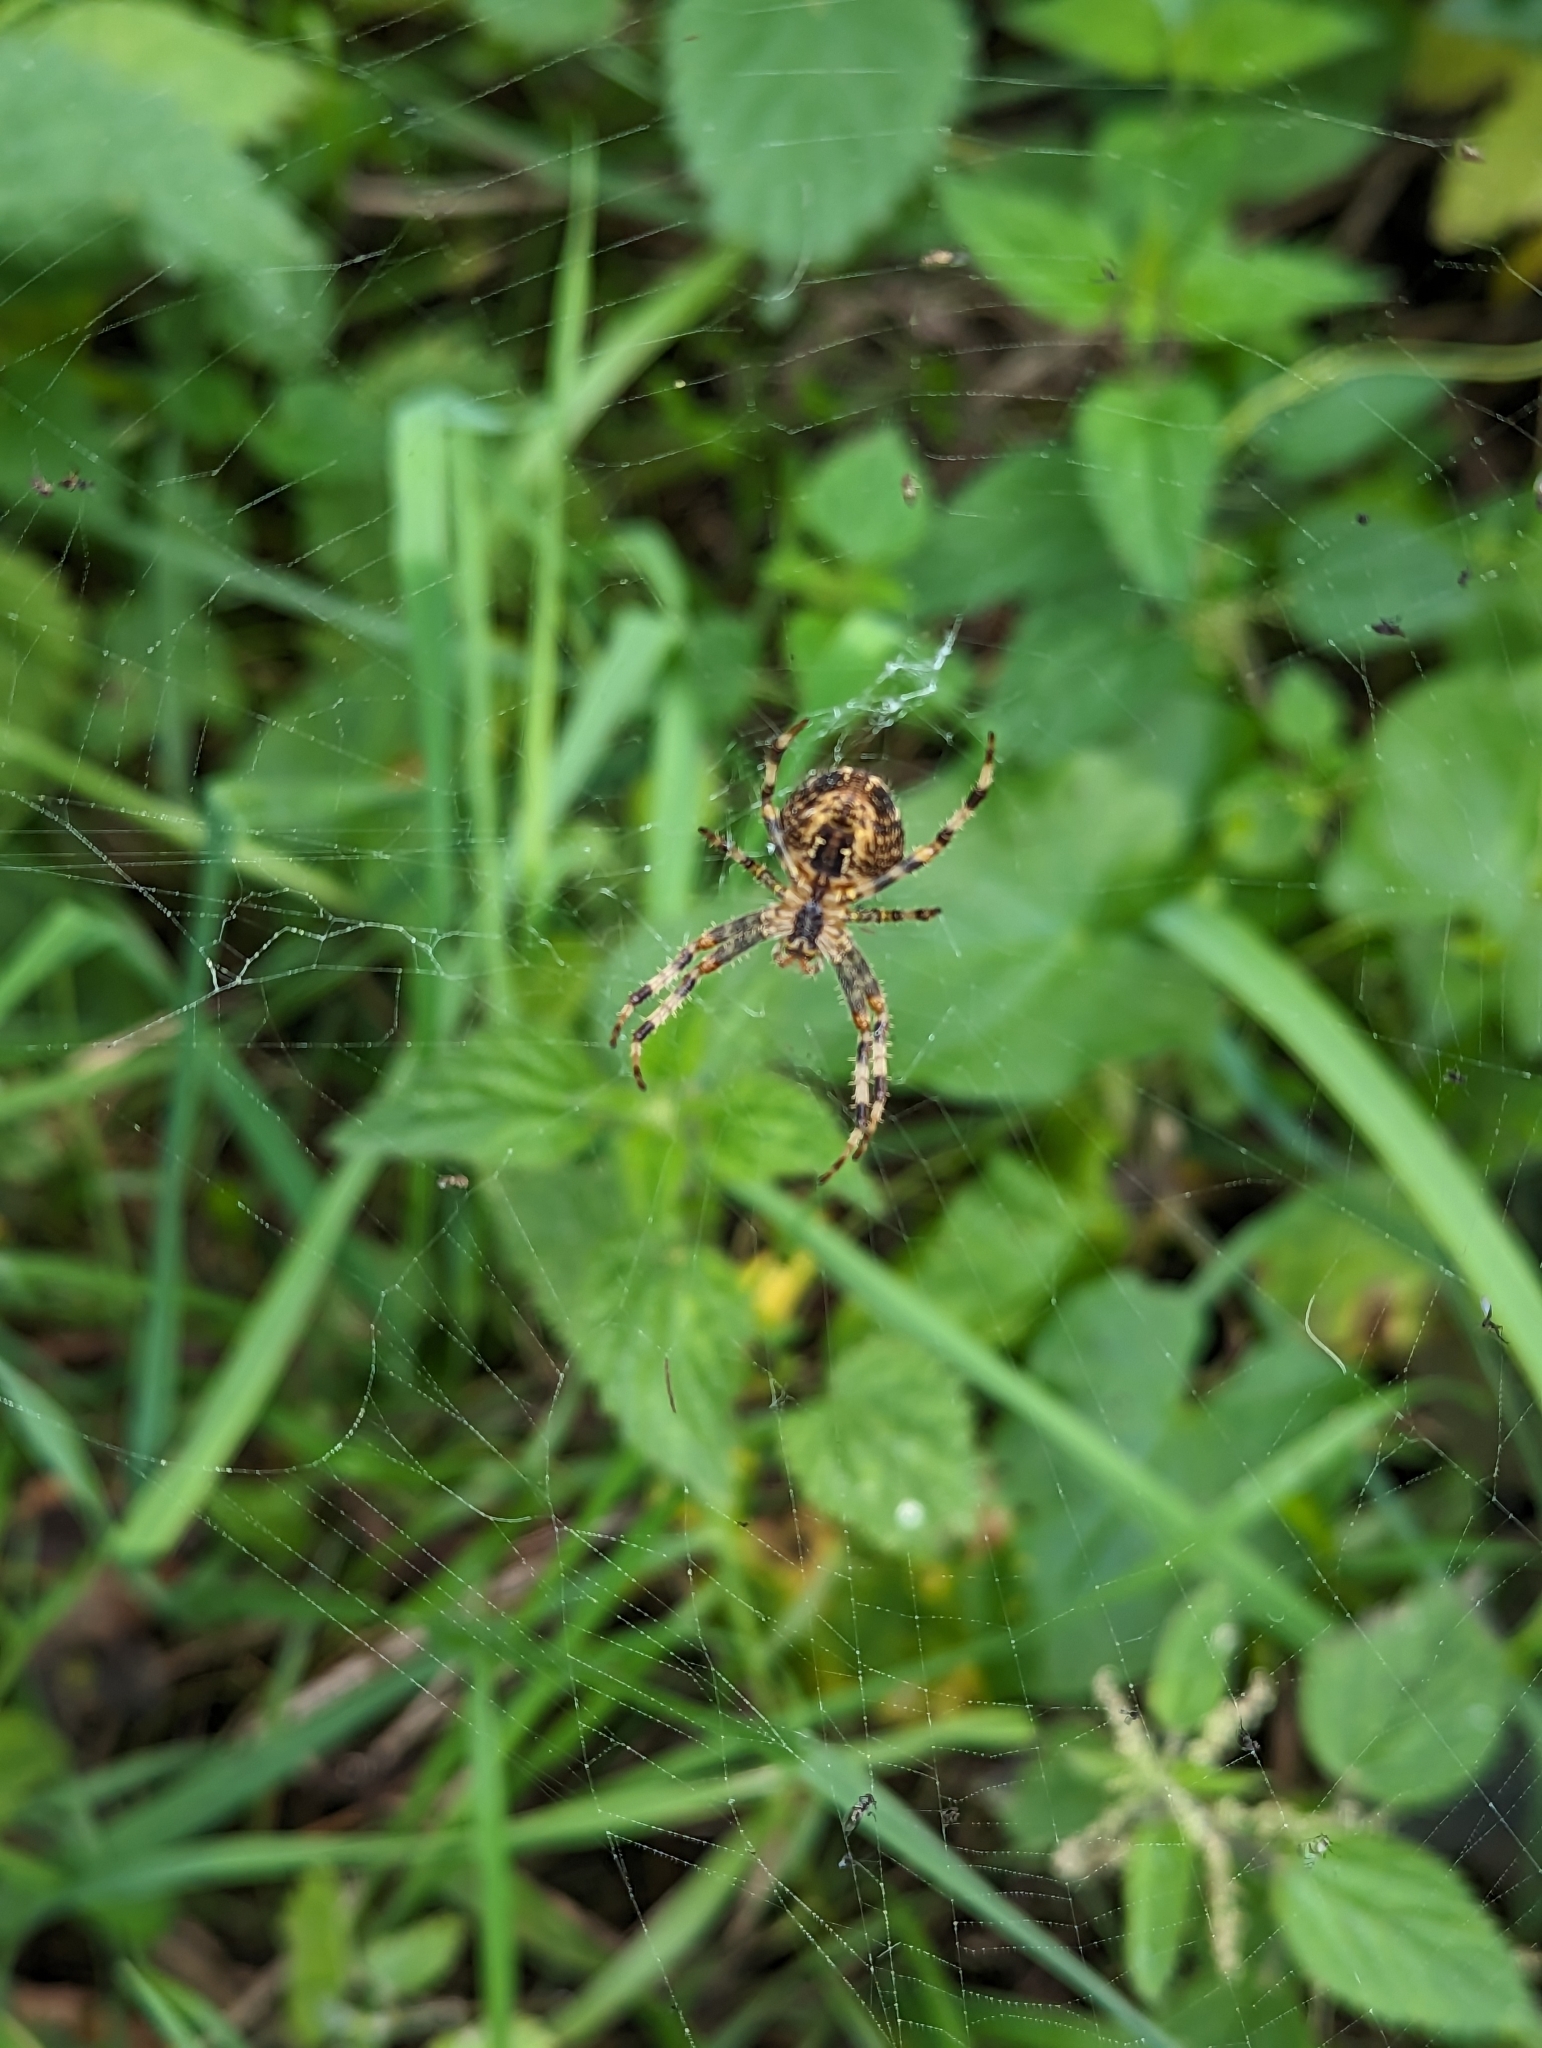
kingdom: Animalia
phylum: Arthropoda
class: Arachnida
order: Araneae
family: Araneidae
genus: Araneus
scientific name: Araneus diadematus
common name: Cross orbweaver
